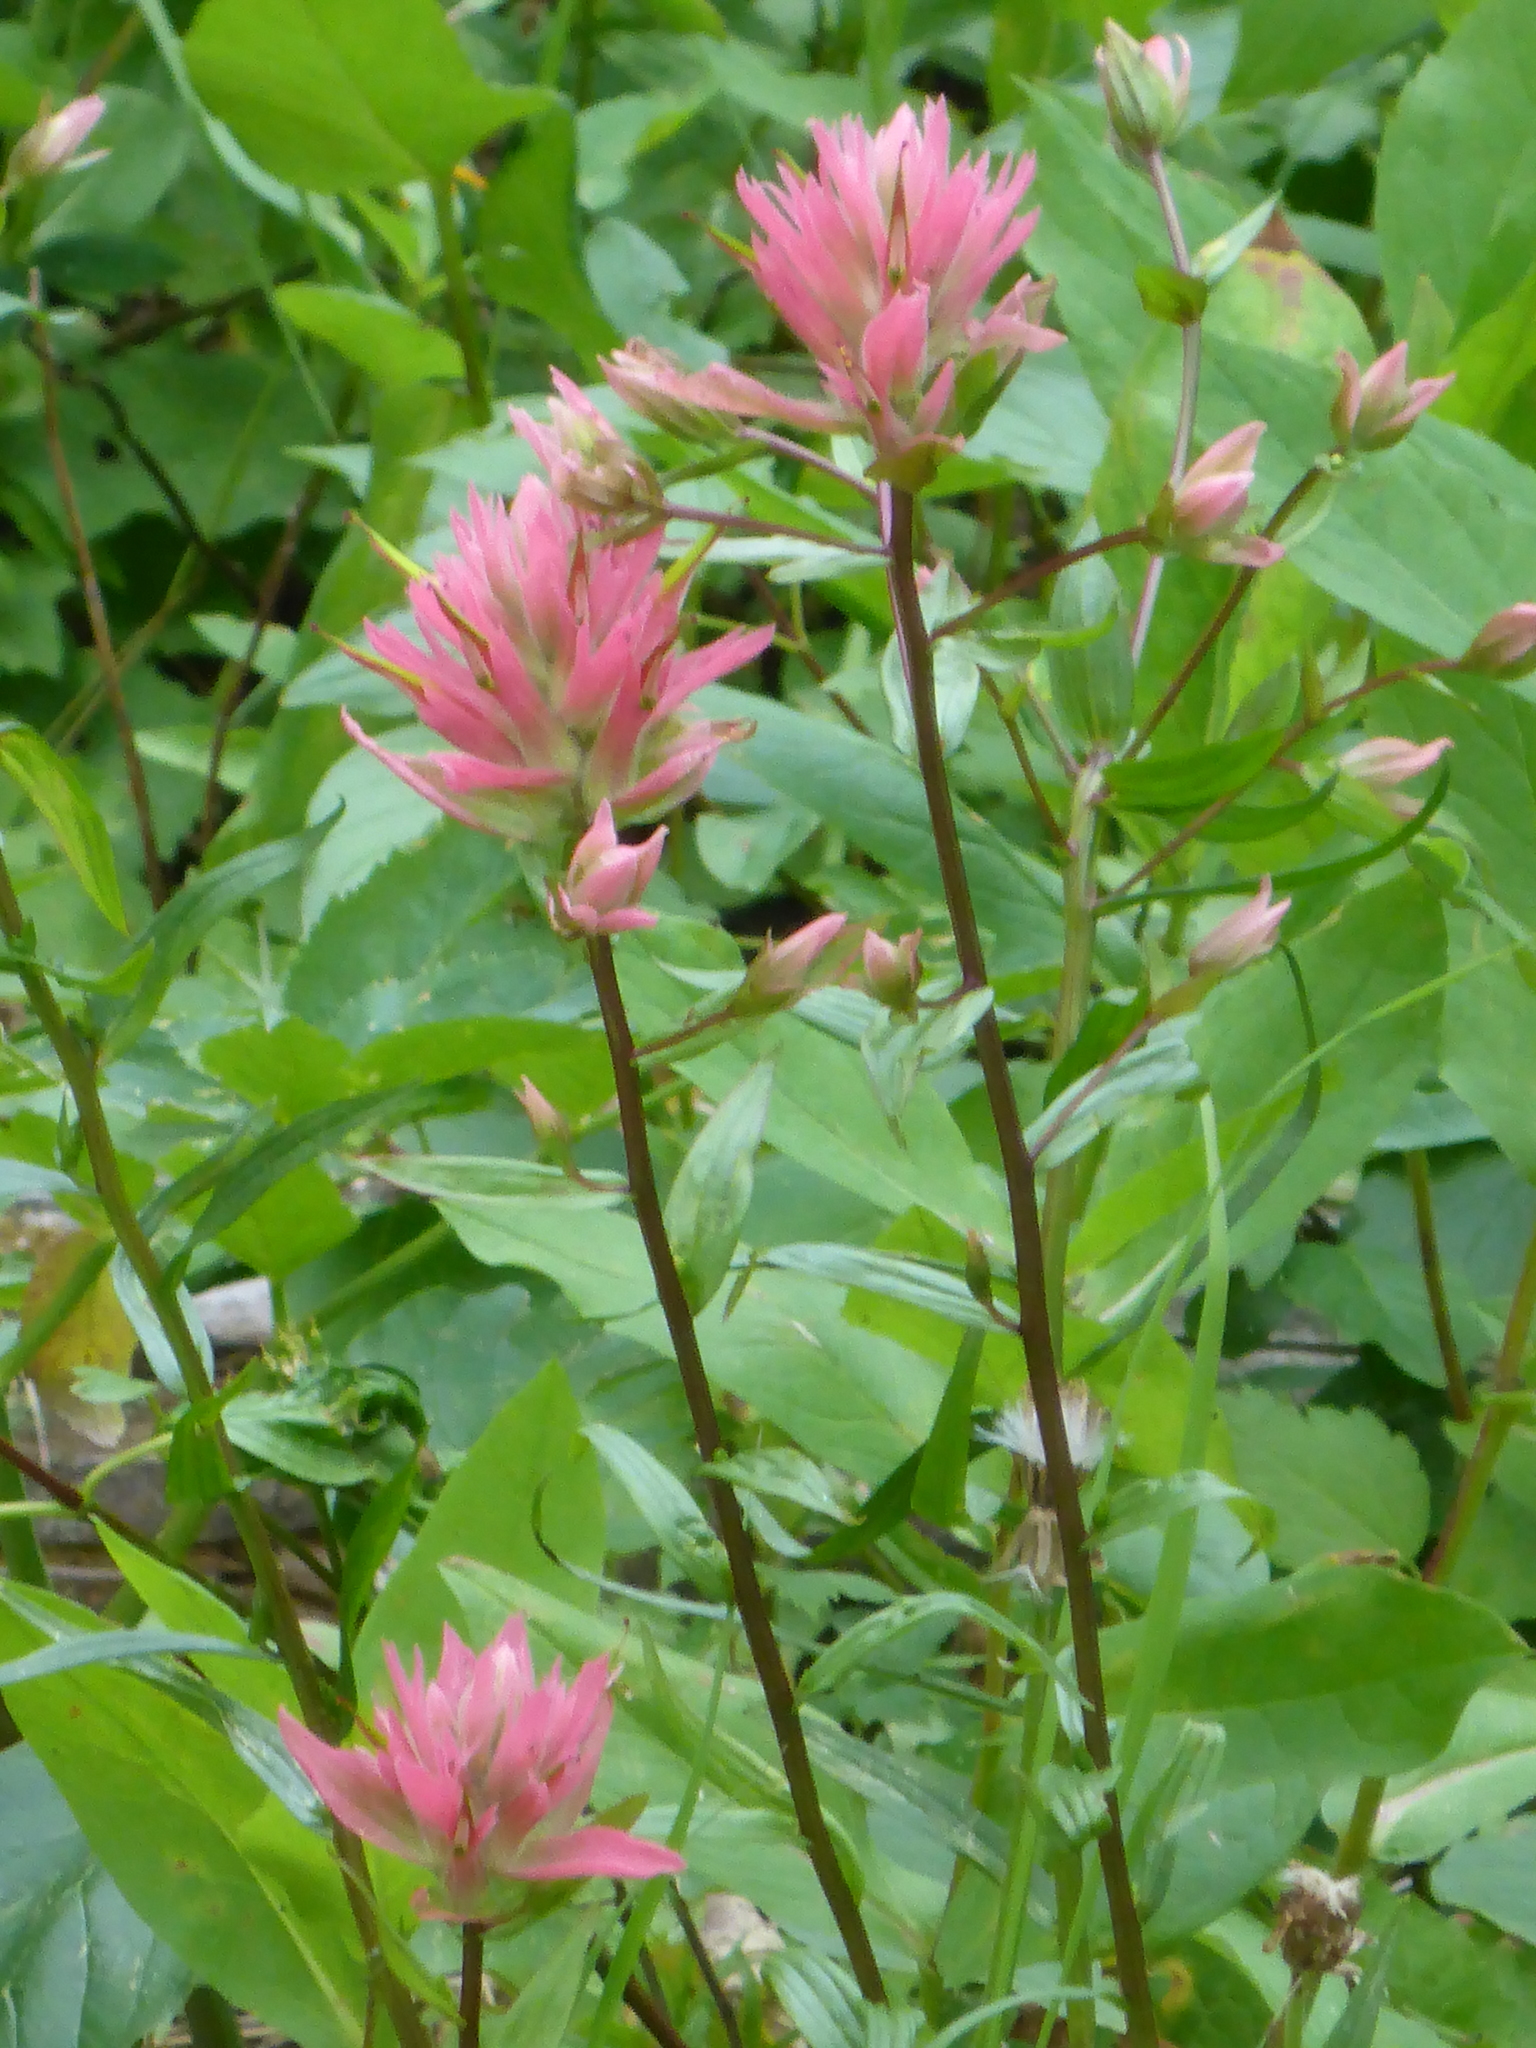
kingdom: Plantae
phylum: Tracheophyta
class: Magnoliopsida
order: Lamiales
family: Orobanchaceae
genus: Castilleja
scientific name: Castilleja miniata
